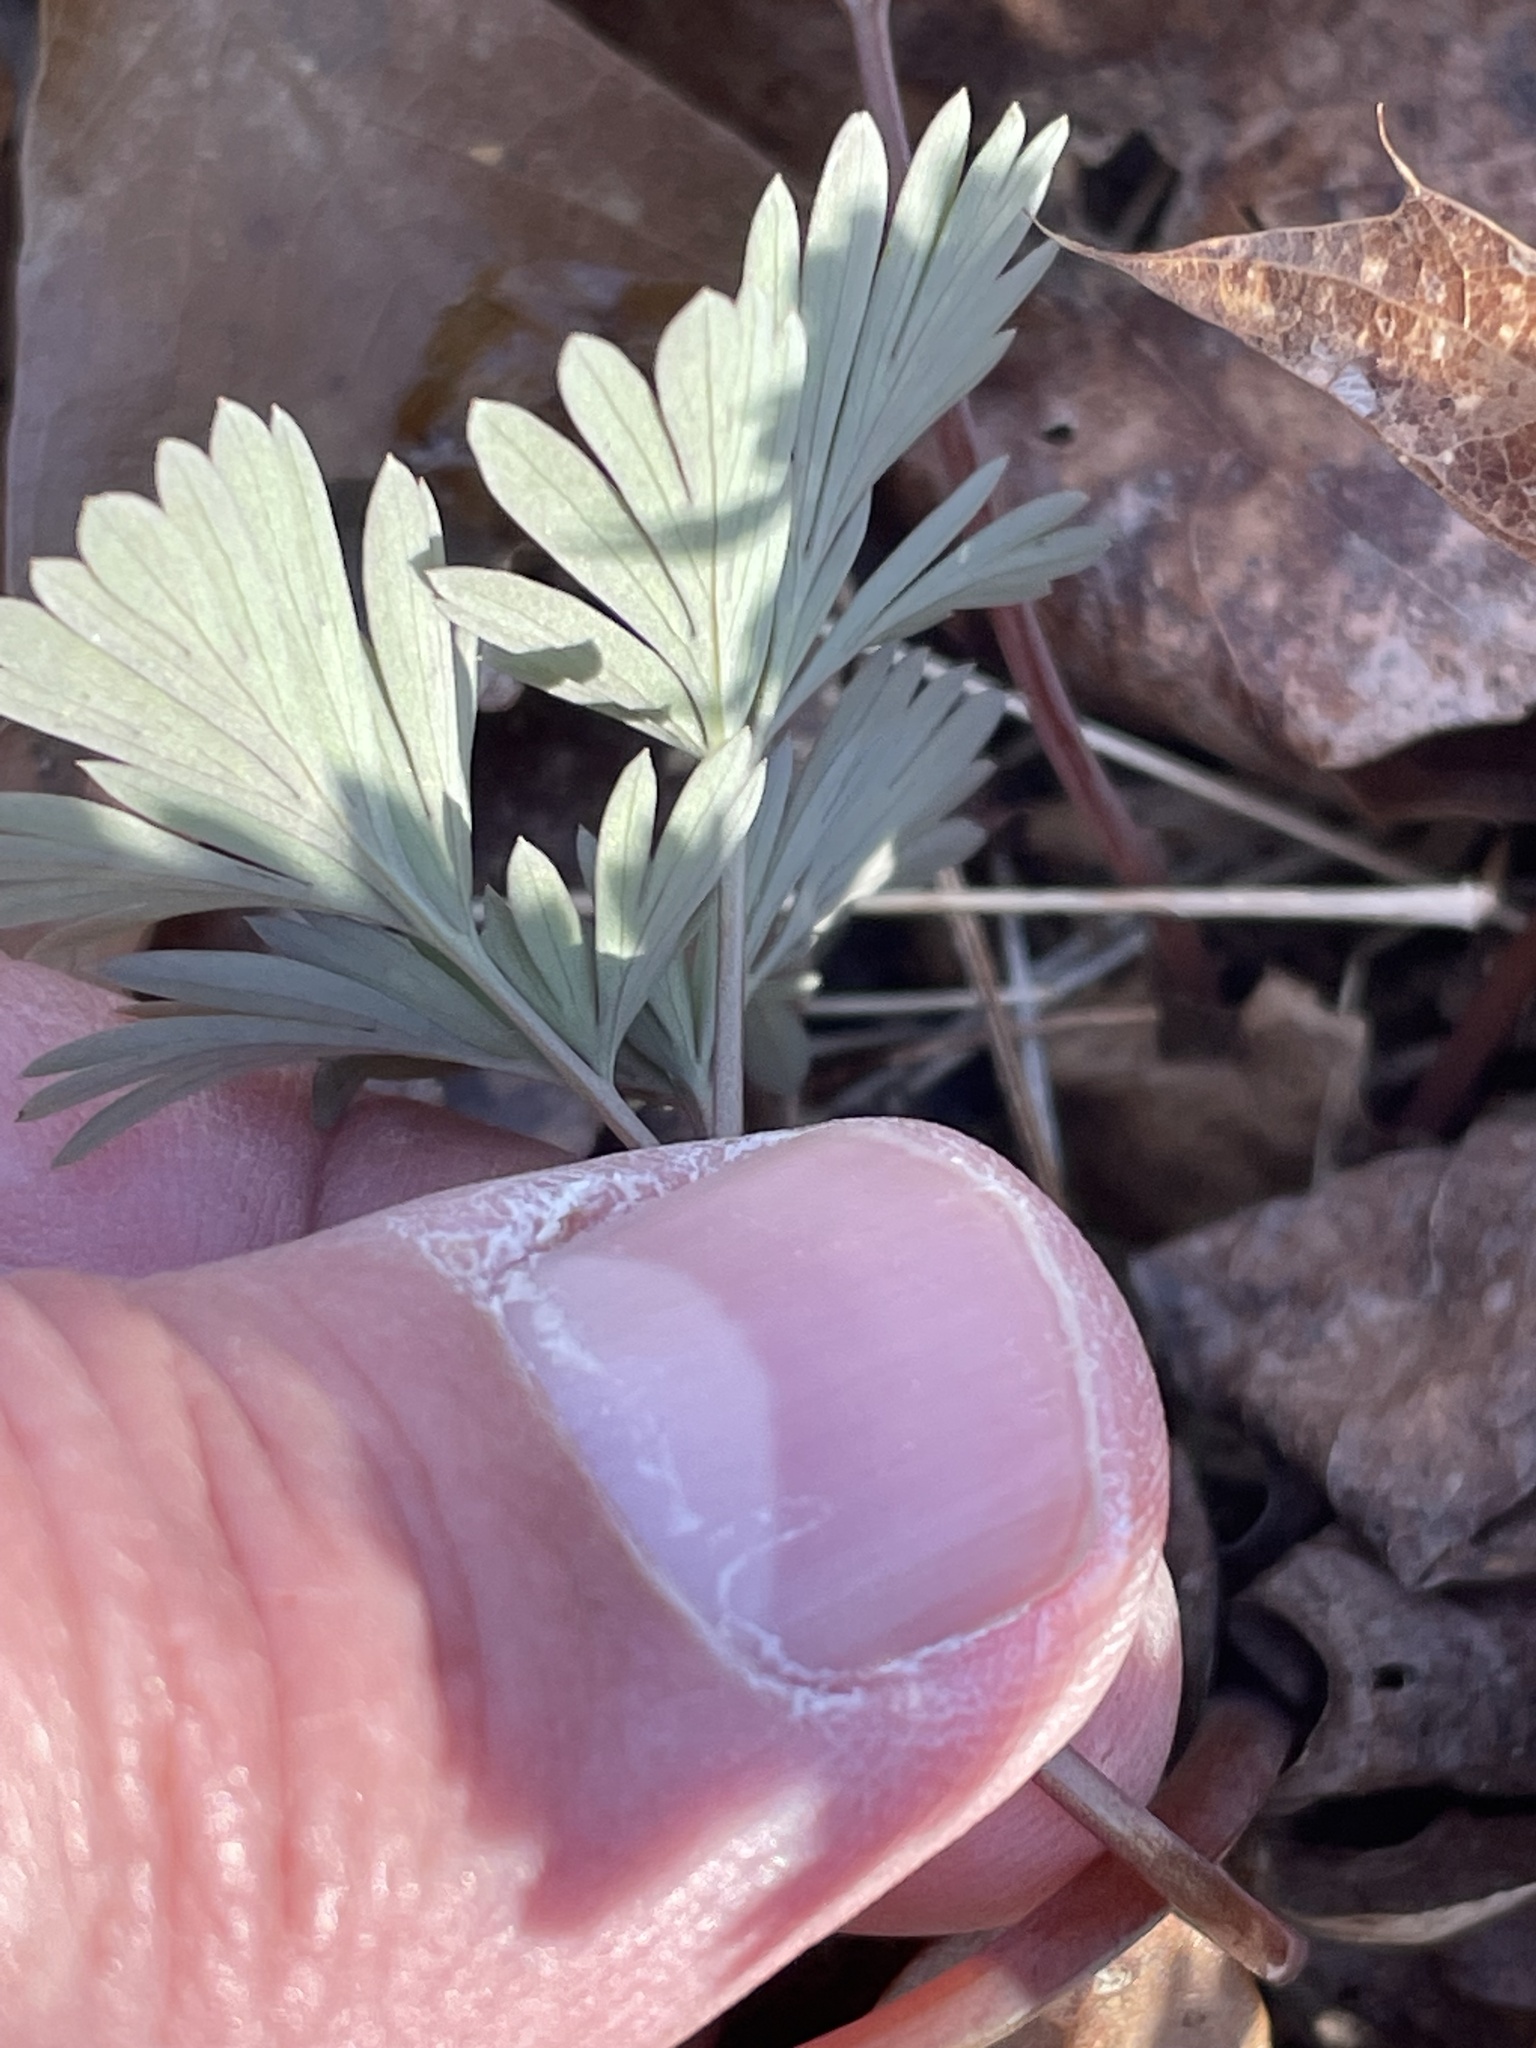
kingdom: Plantae
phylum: Tracheophyta
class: Magnoliopsida
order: Ranunculales
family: Papaveraceae
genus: Dicentra
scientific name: Dicentra cucullaria
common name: Dutchman's breeches
